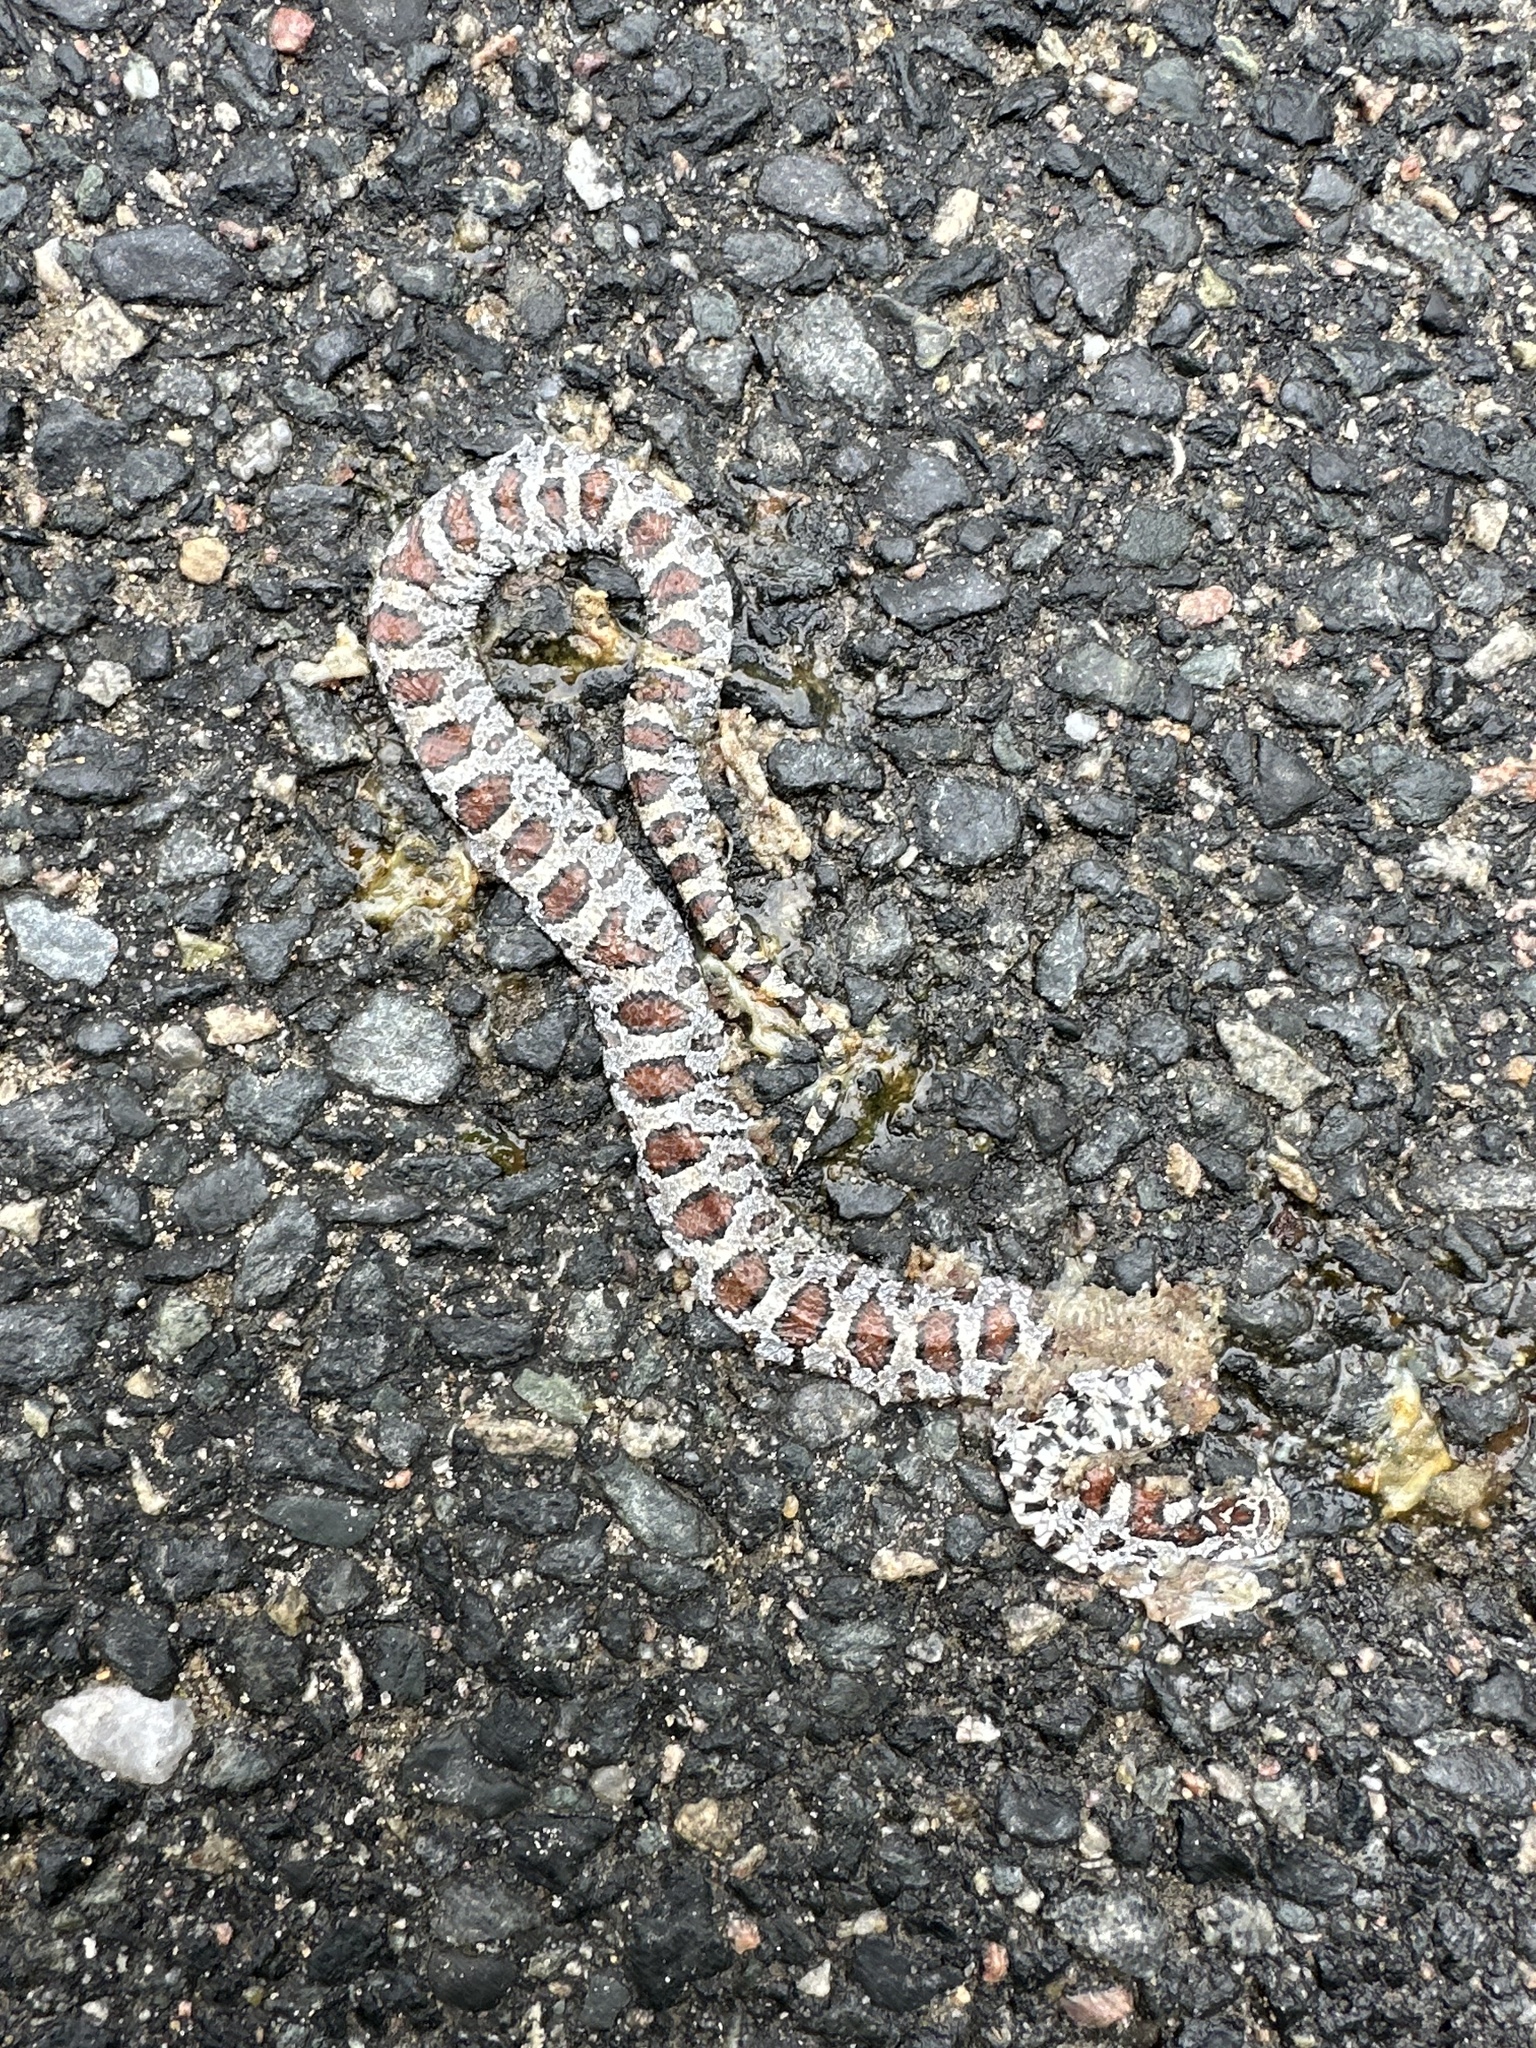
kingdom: Animalia
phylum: Chordata
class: Squamata
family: Colubridae
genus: Lampropeltis
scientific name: Lampropeltis triangulum
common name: Eastern milksnake
